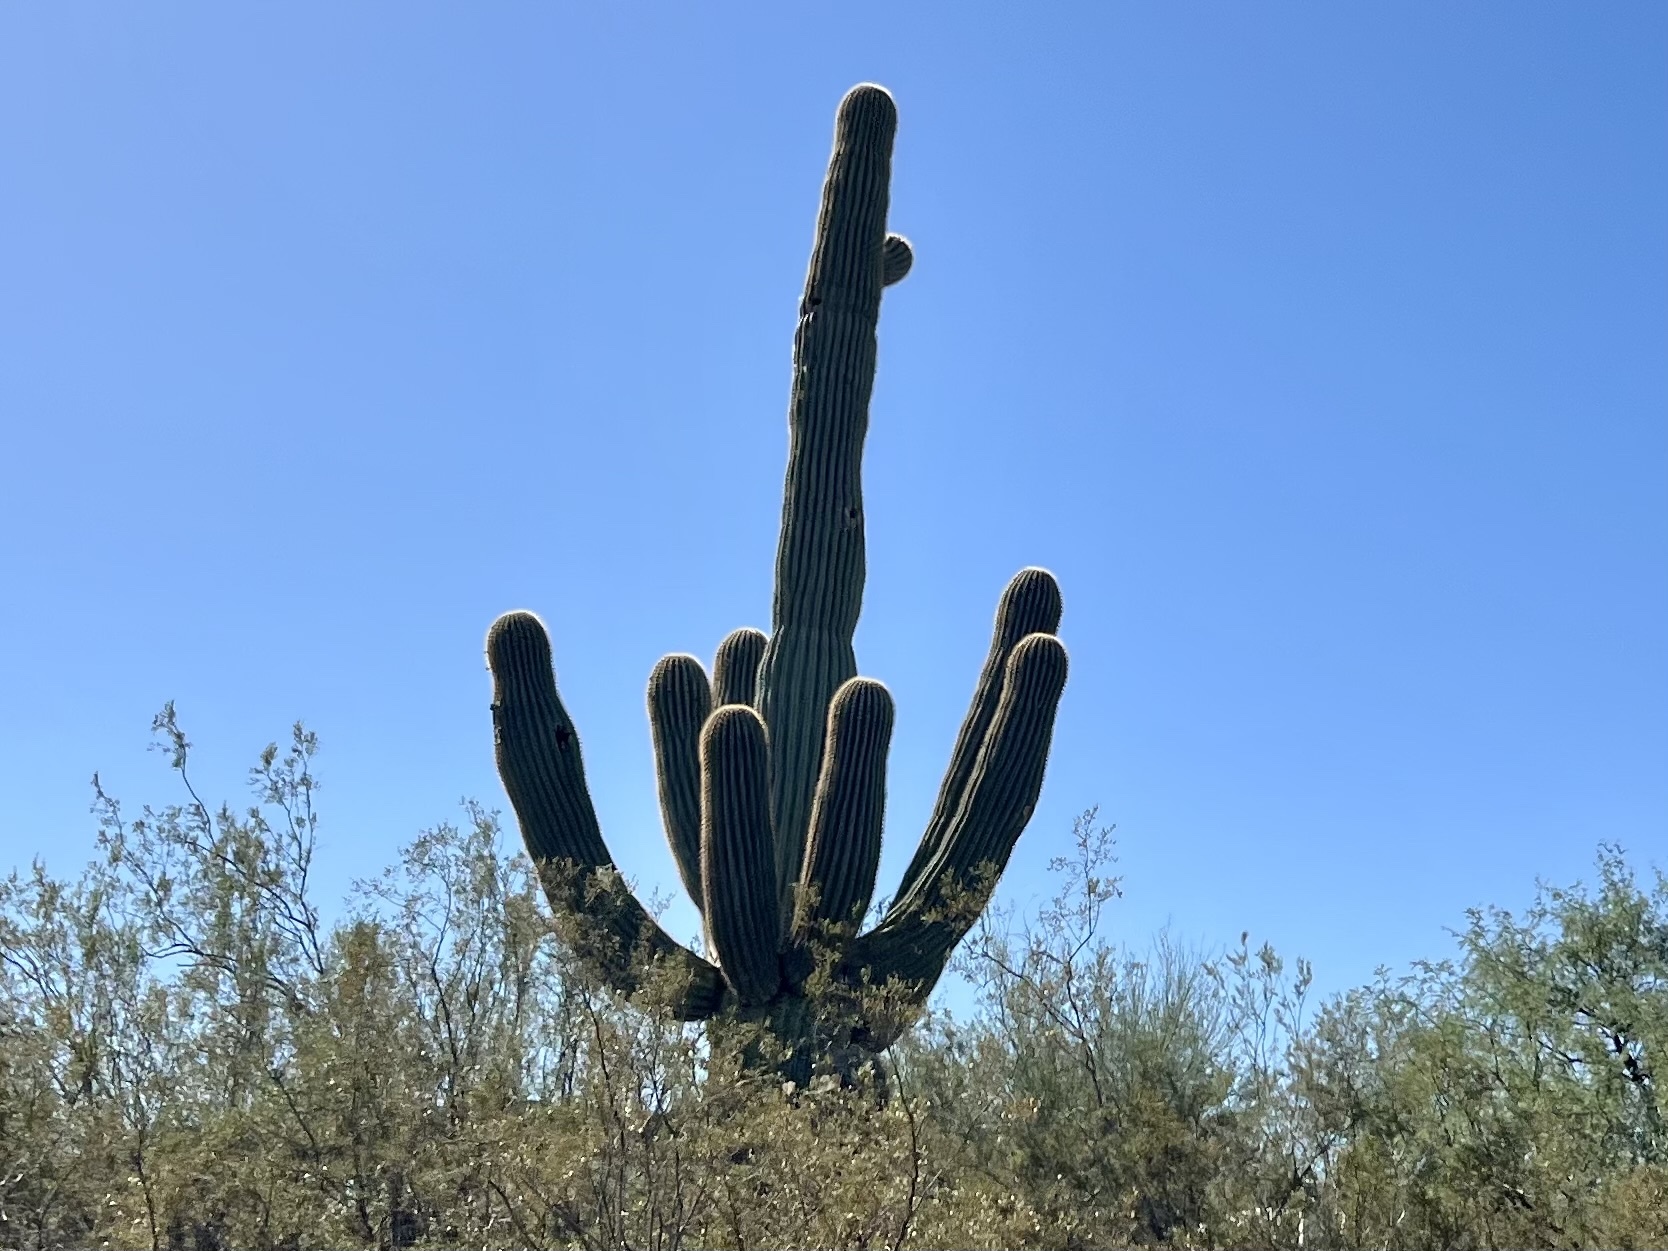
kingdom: Plantae
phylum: Tracheophyta
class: Magnoliopsida
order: Caryophyllales
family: Cactaceae
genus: Carnegiea
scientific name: Carnegiea gigantea
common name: Saguaro
